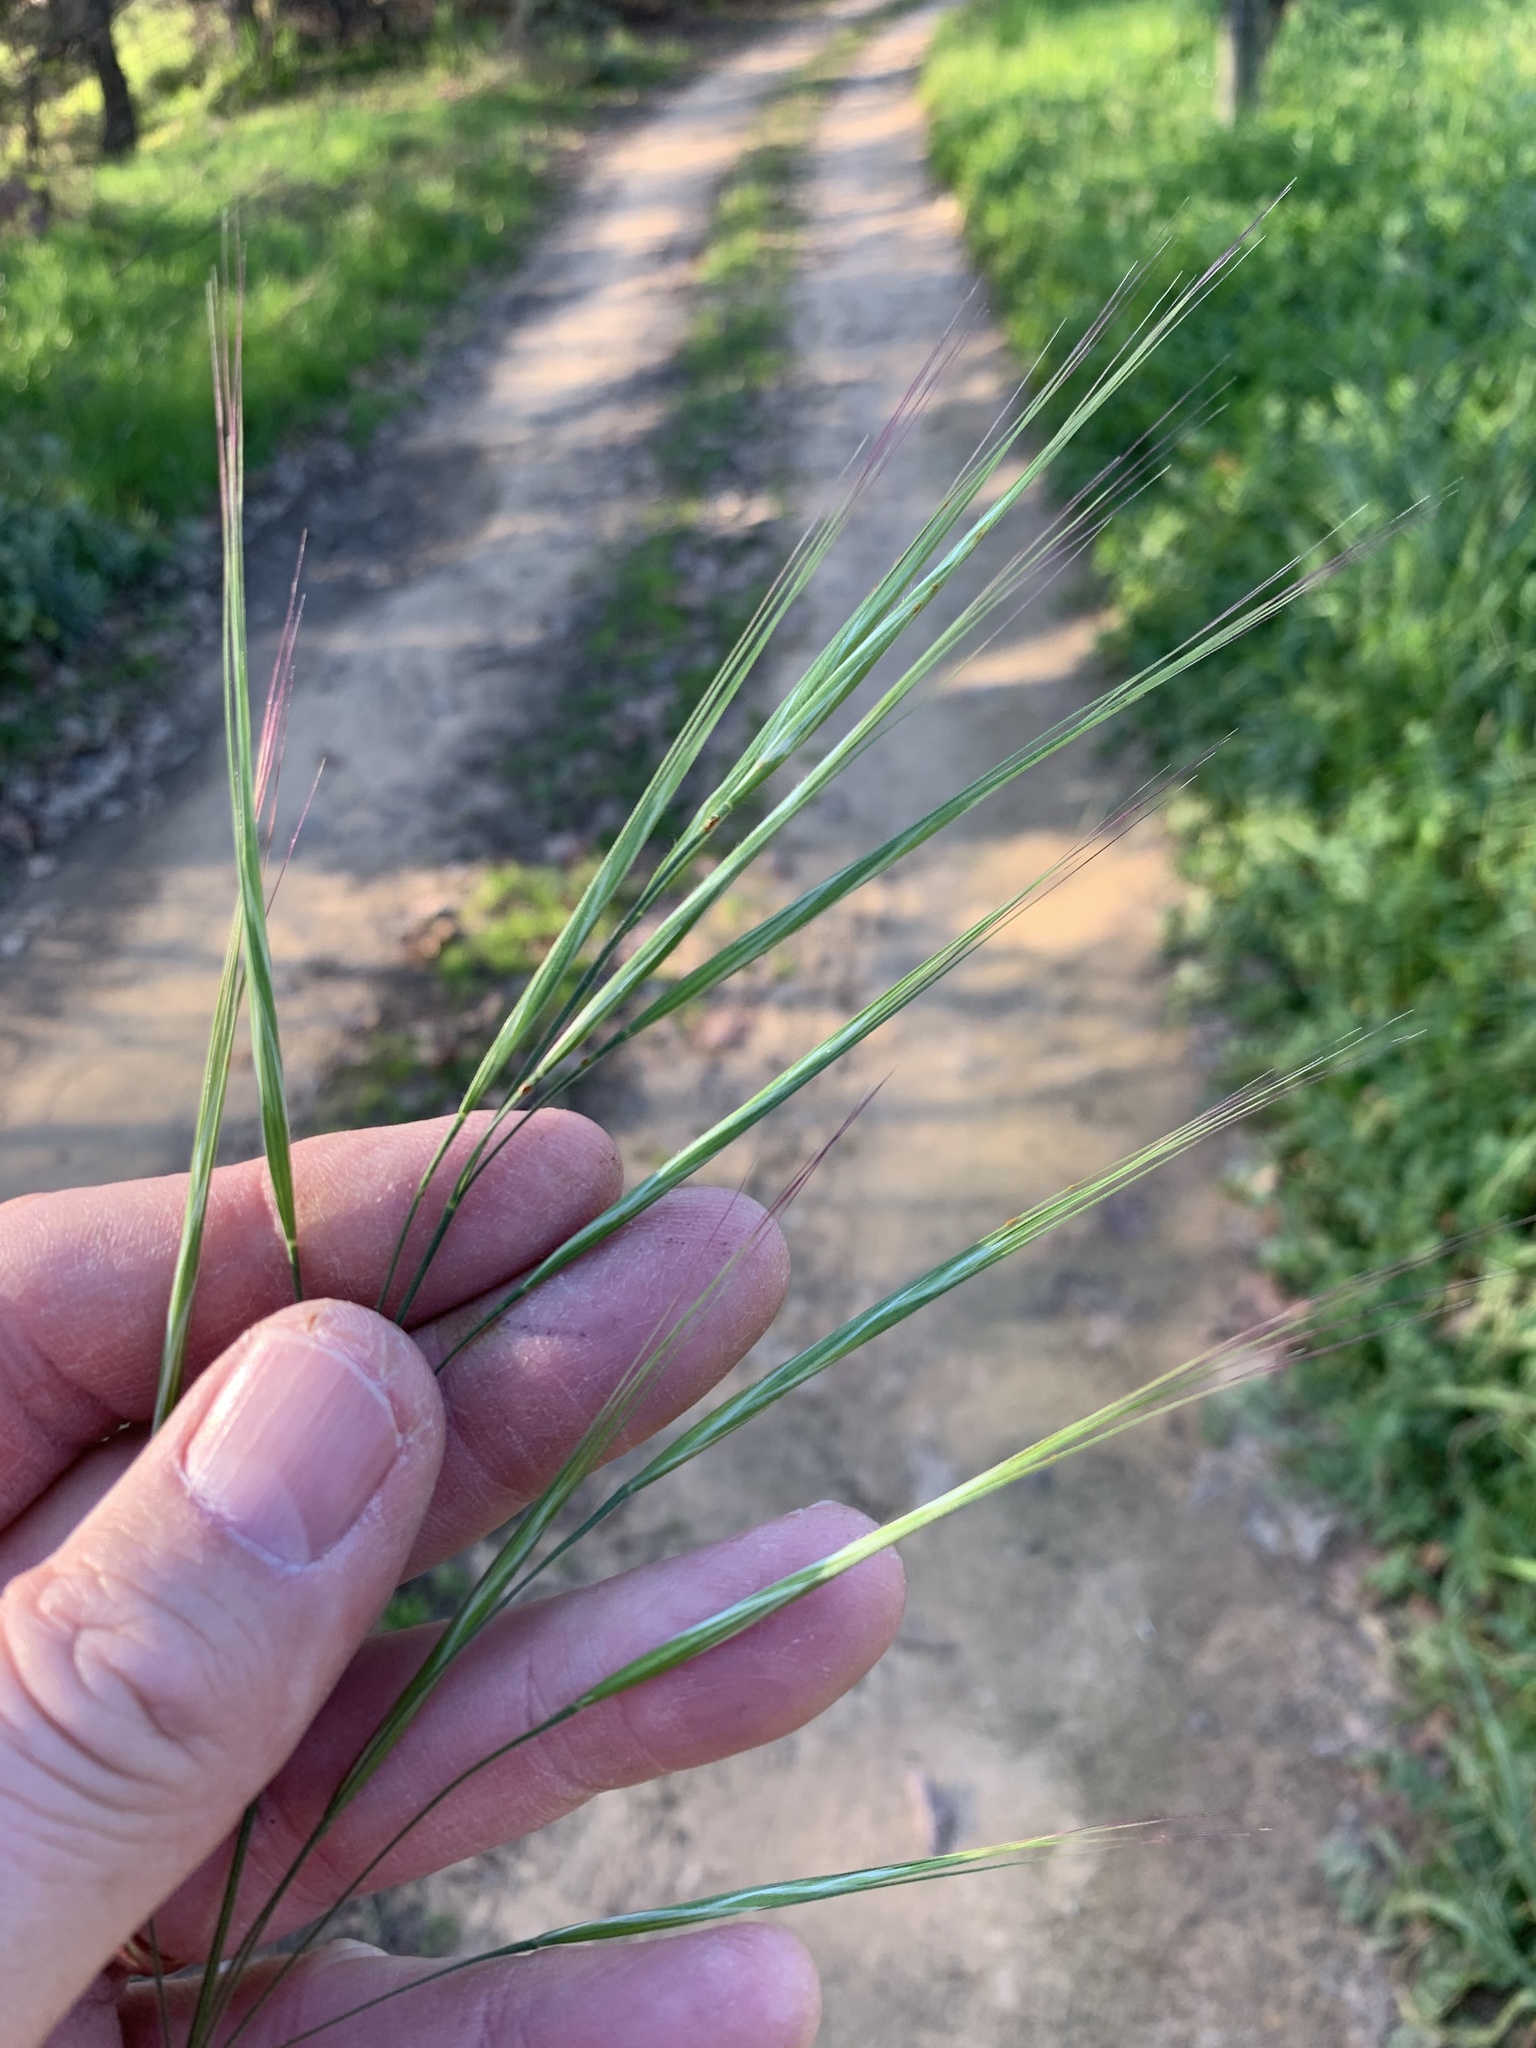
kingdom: Plantae
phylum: Tracheophyta
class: Liliopsida
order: Poales
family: Poaceae
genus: Bromus
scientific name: Bromus diandrus
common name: Ripgut brome
